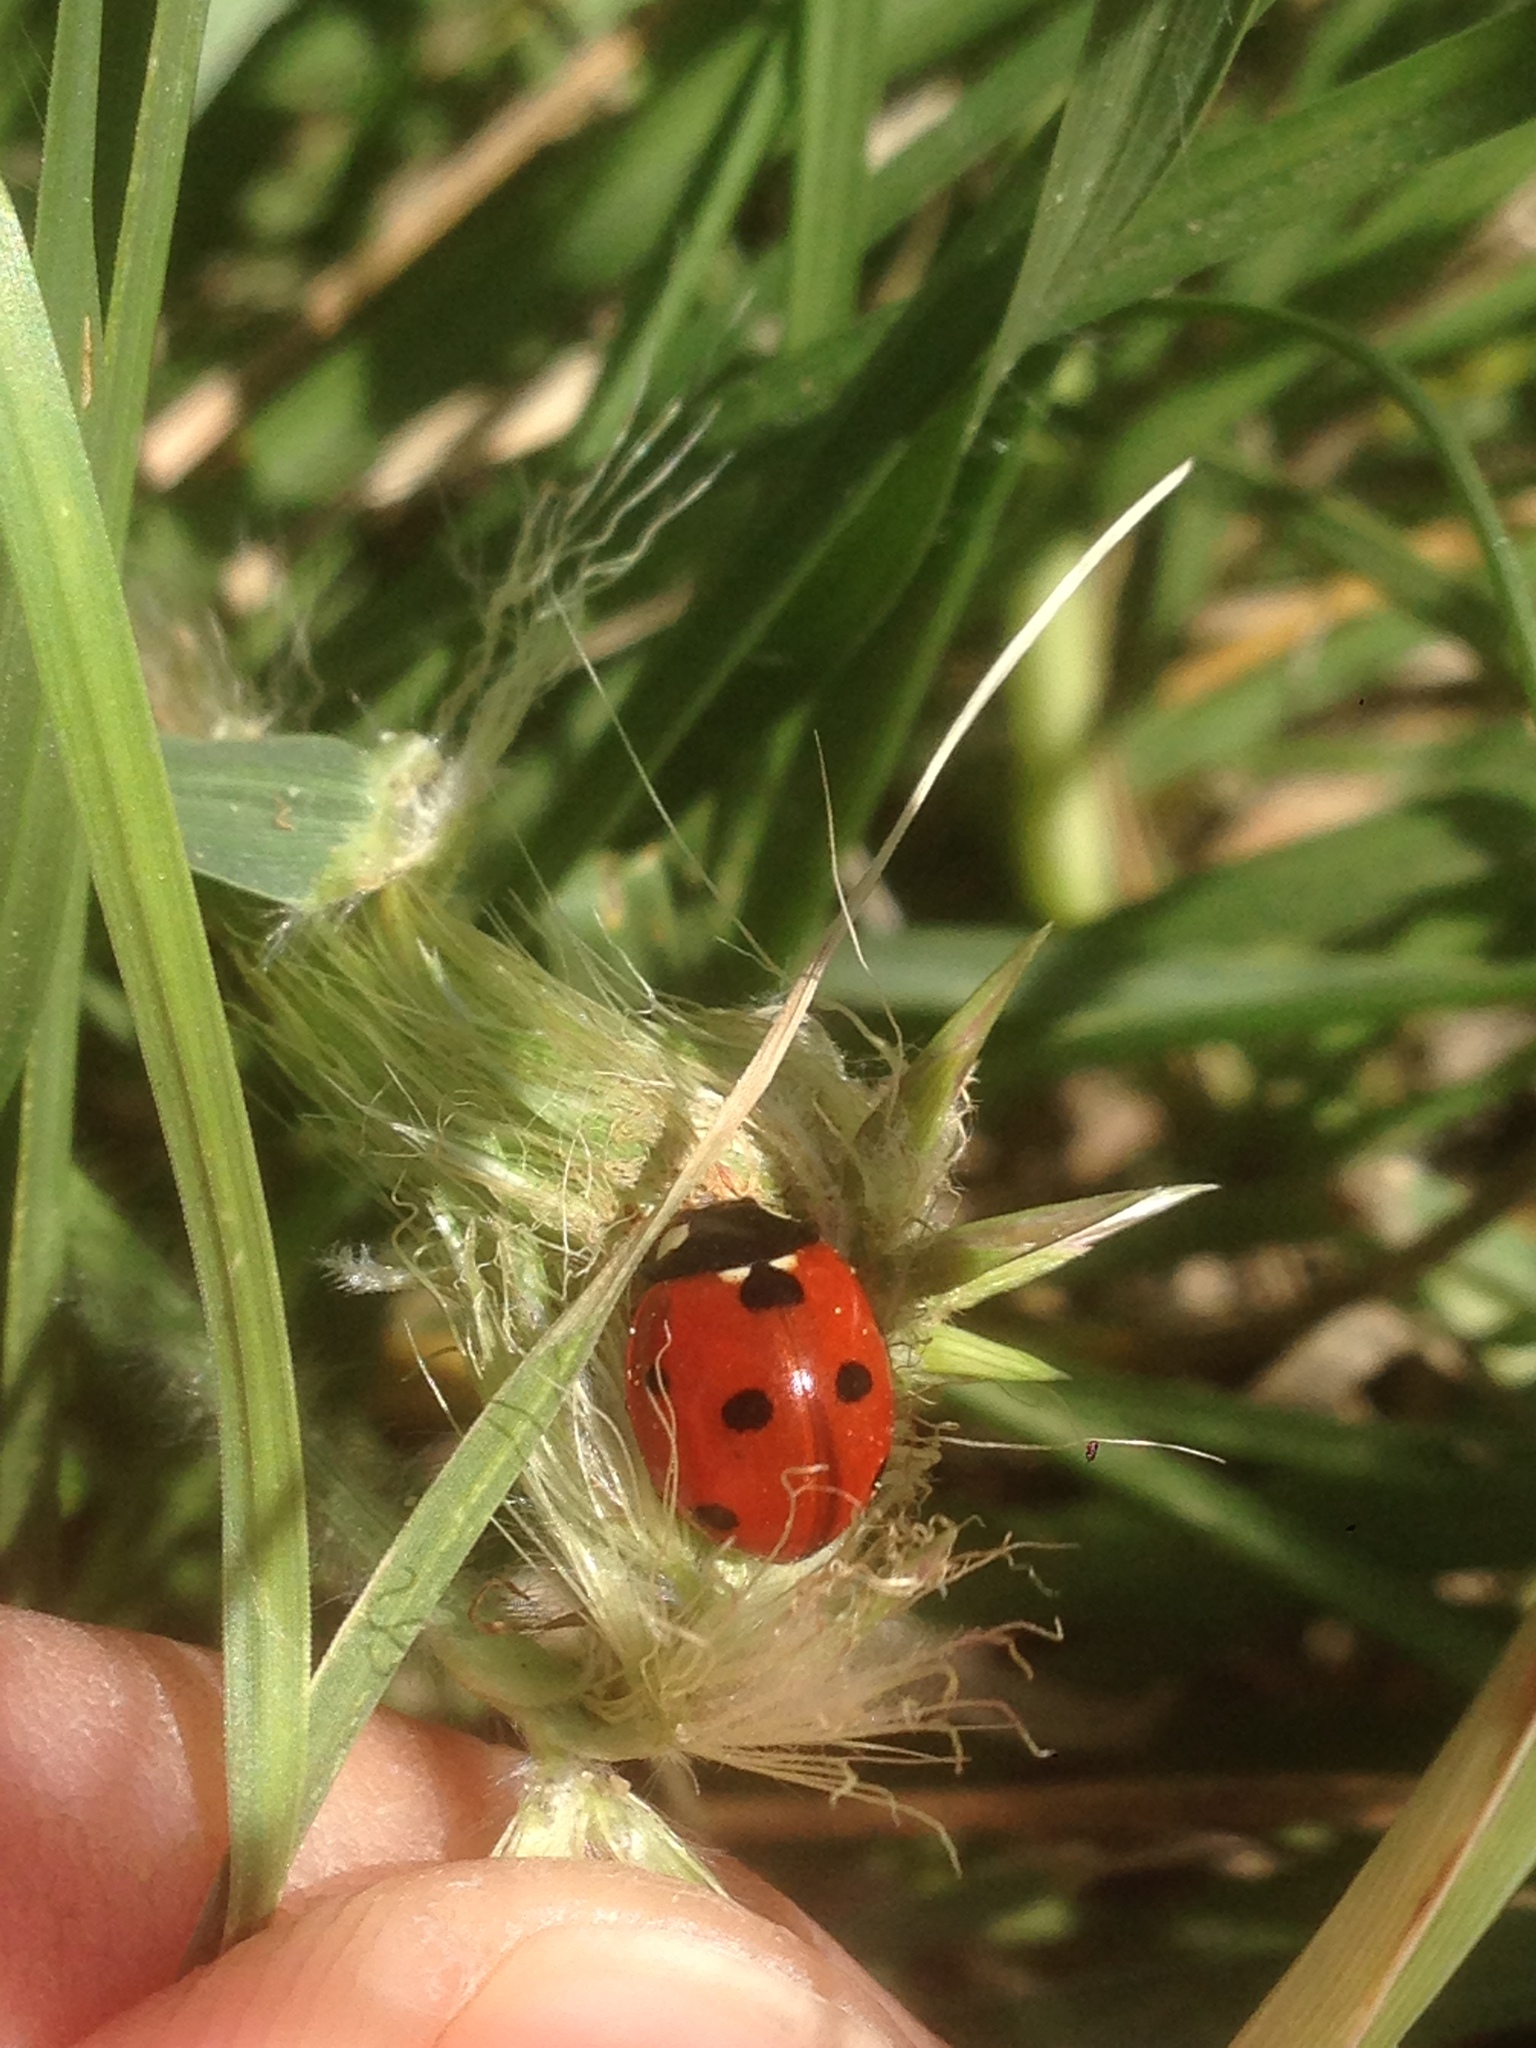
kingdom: Animalia
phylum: Arthropoda
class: Insecta
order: Coleoptera
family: Coccinellidae
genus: Coccinella
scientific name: Coccinella septempunctata
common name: Sevenspotted lady beetle
